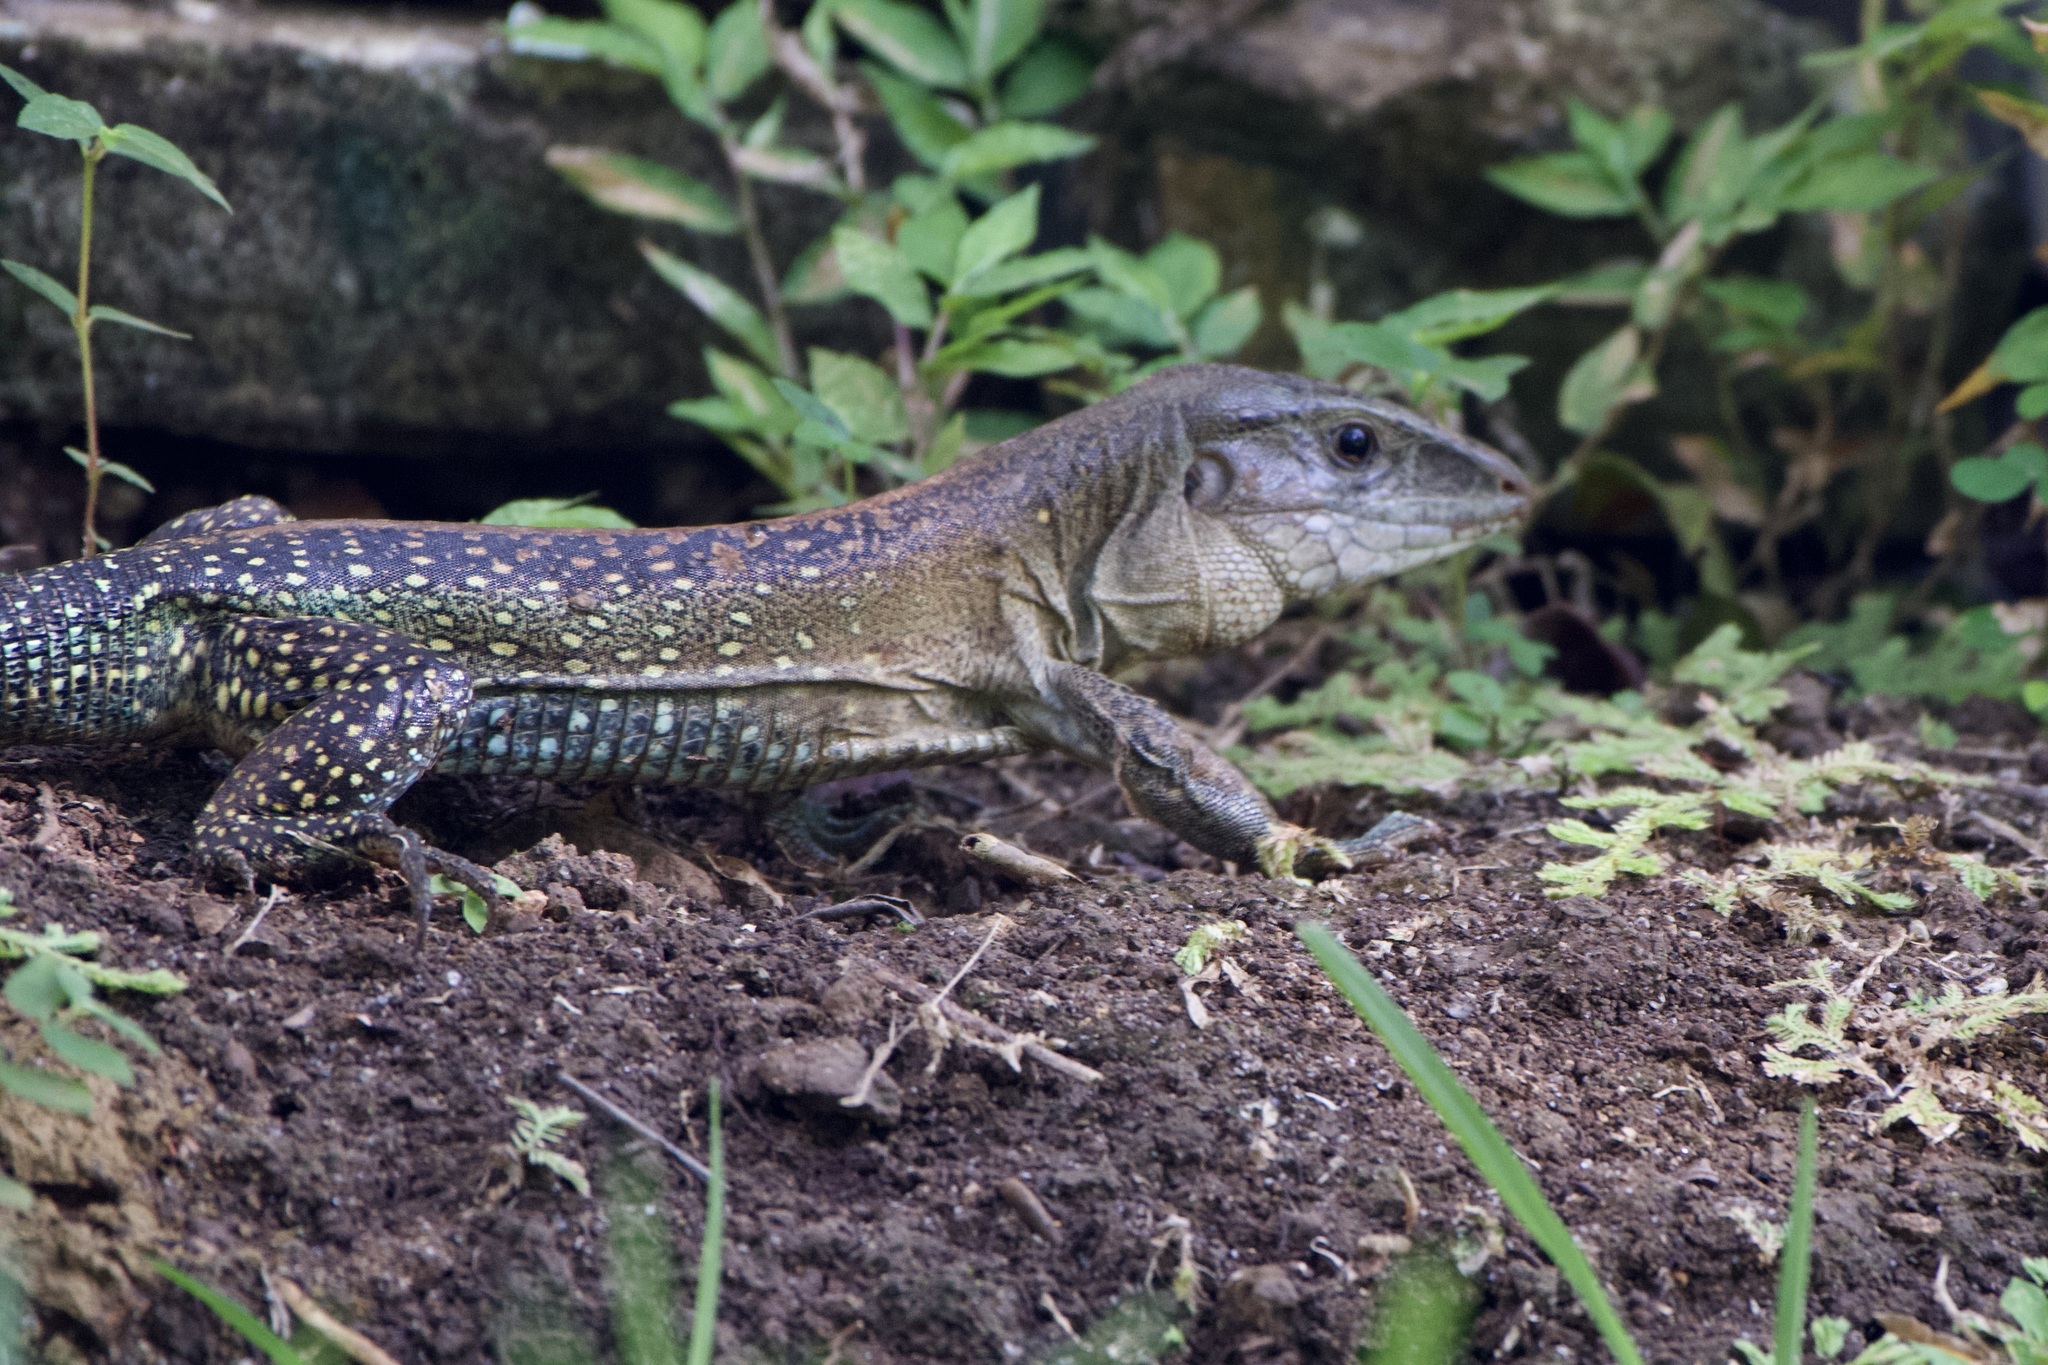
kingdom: Animalia
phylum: Chordata
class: Squamata
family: Teiidae
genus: Ameiva
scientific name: Ameiva praesignis
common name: Giant ameiva
